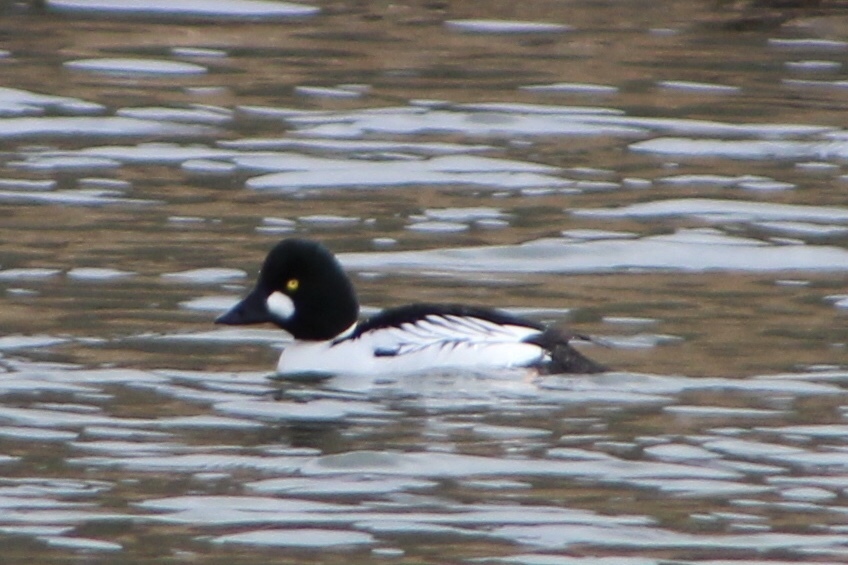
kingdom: Animalia
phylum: Chordata
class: Aves
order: Anseriformes
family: Anatidae
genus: Bucephala
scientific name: Bucephala clangula
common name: Common goldeneye
